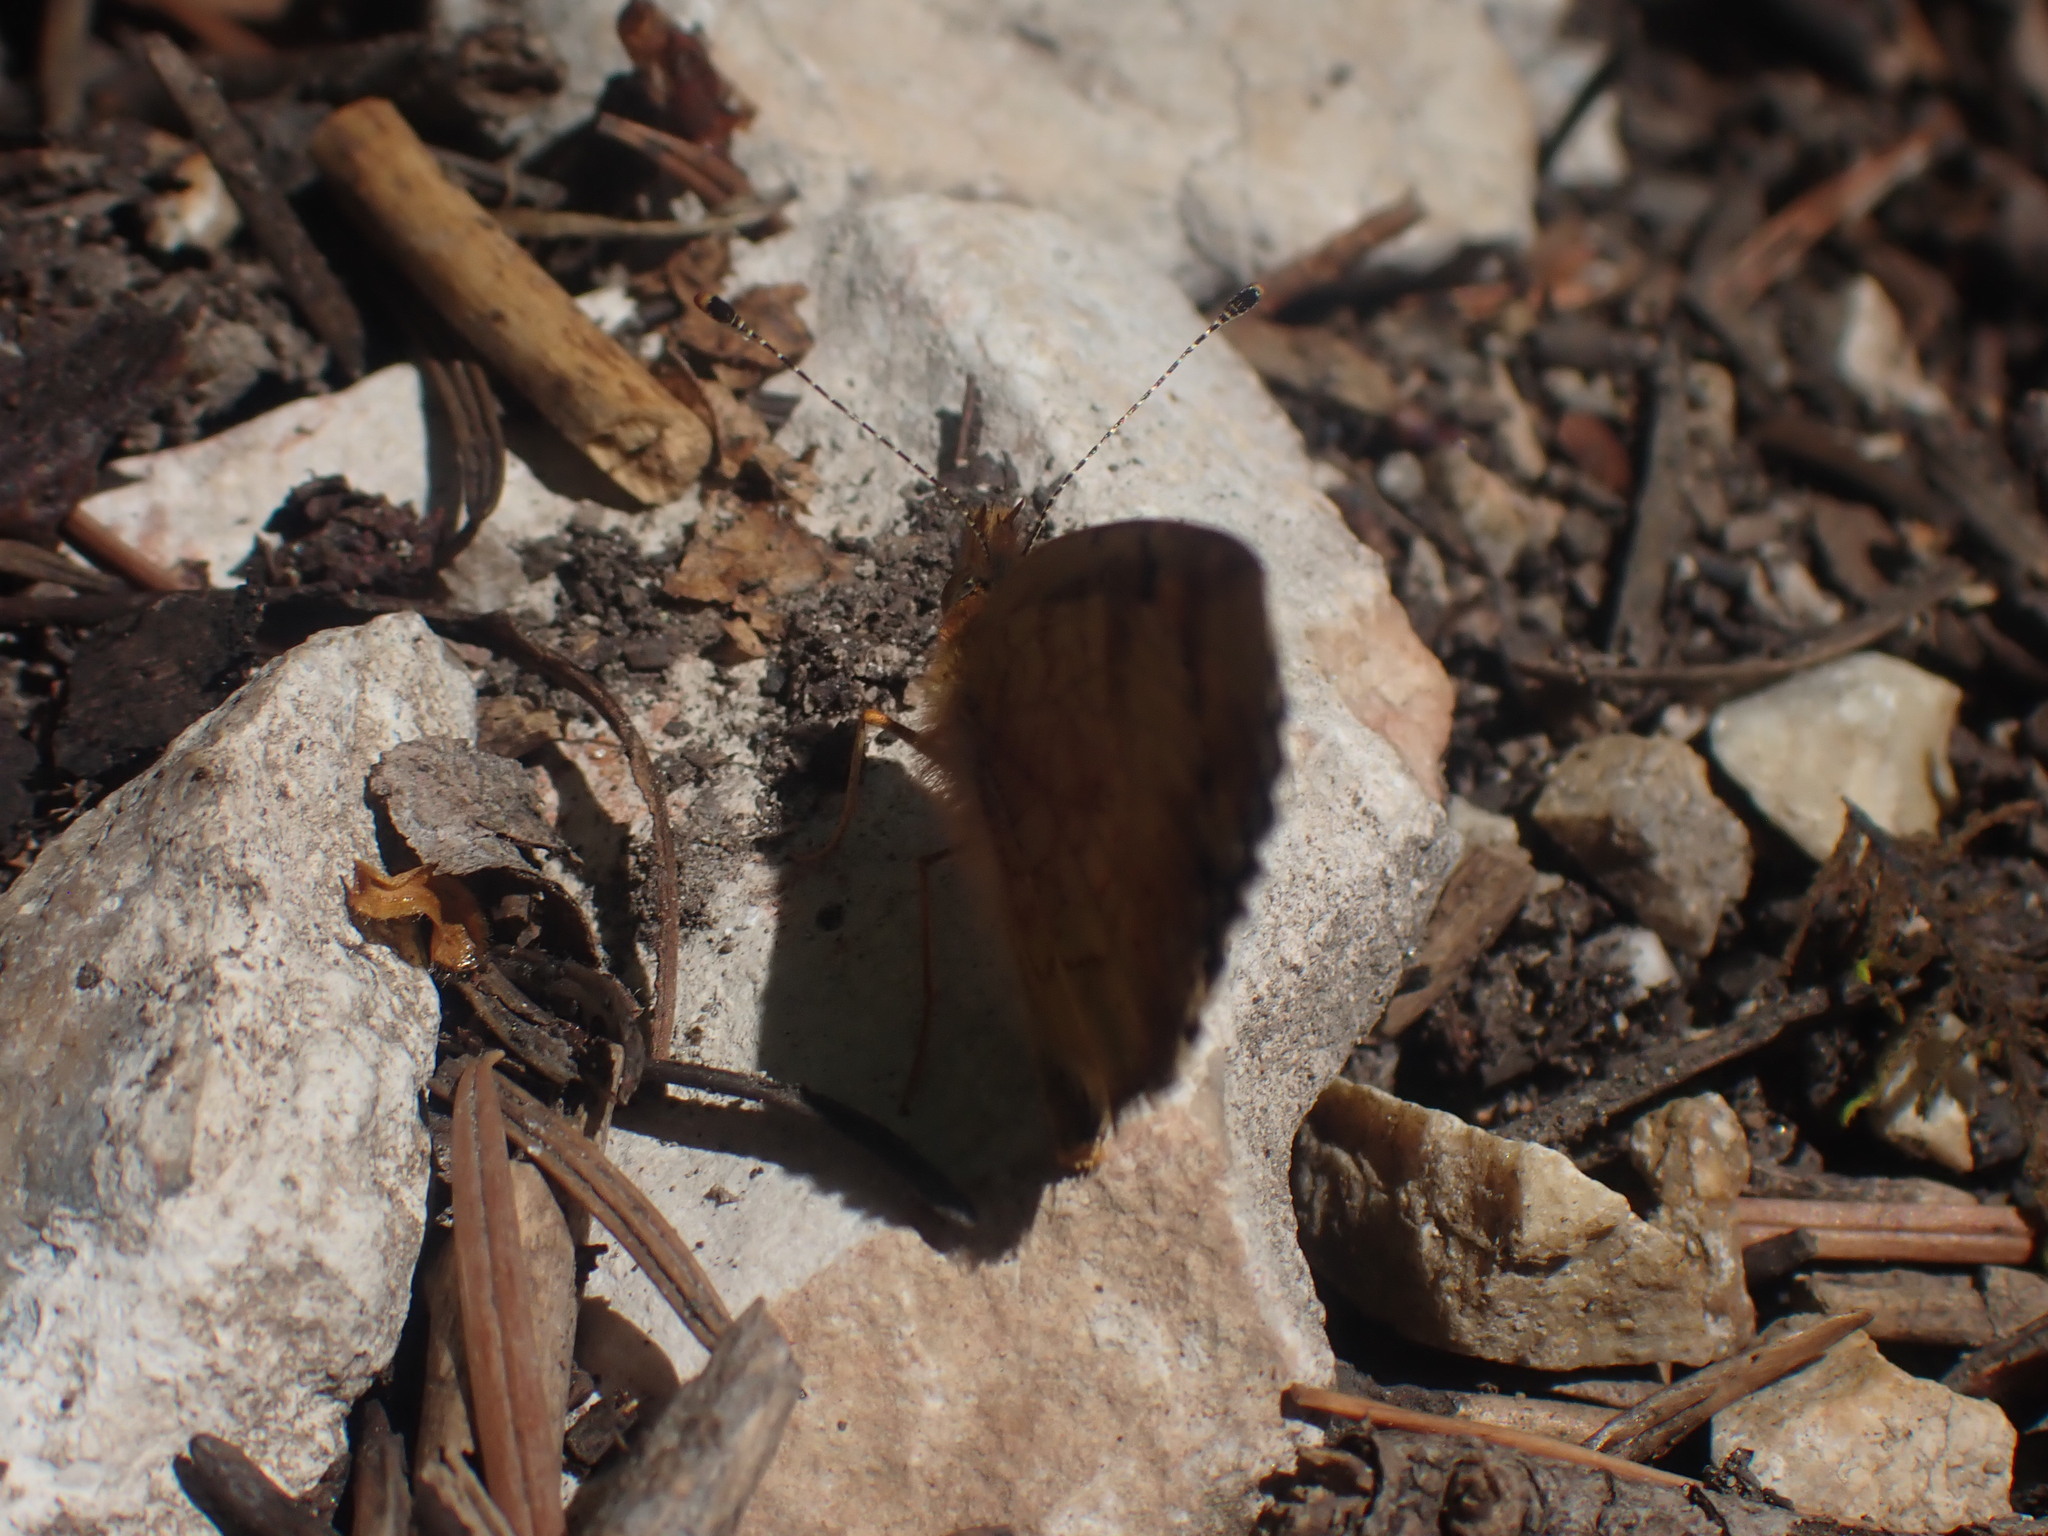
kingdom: Animalia
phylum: Arthropoda
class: Insecta
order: Lepidoptera
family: Nymphalidae
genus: Phyciodes
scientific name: Phyciodes tharos
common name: Pearl crescent
